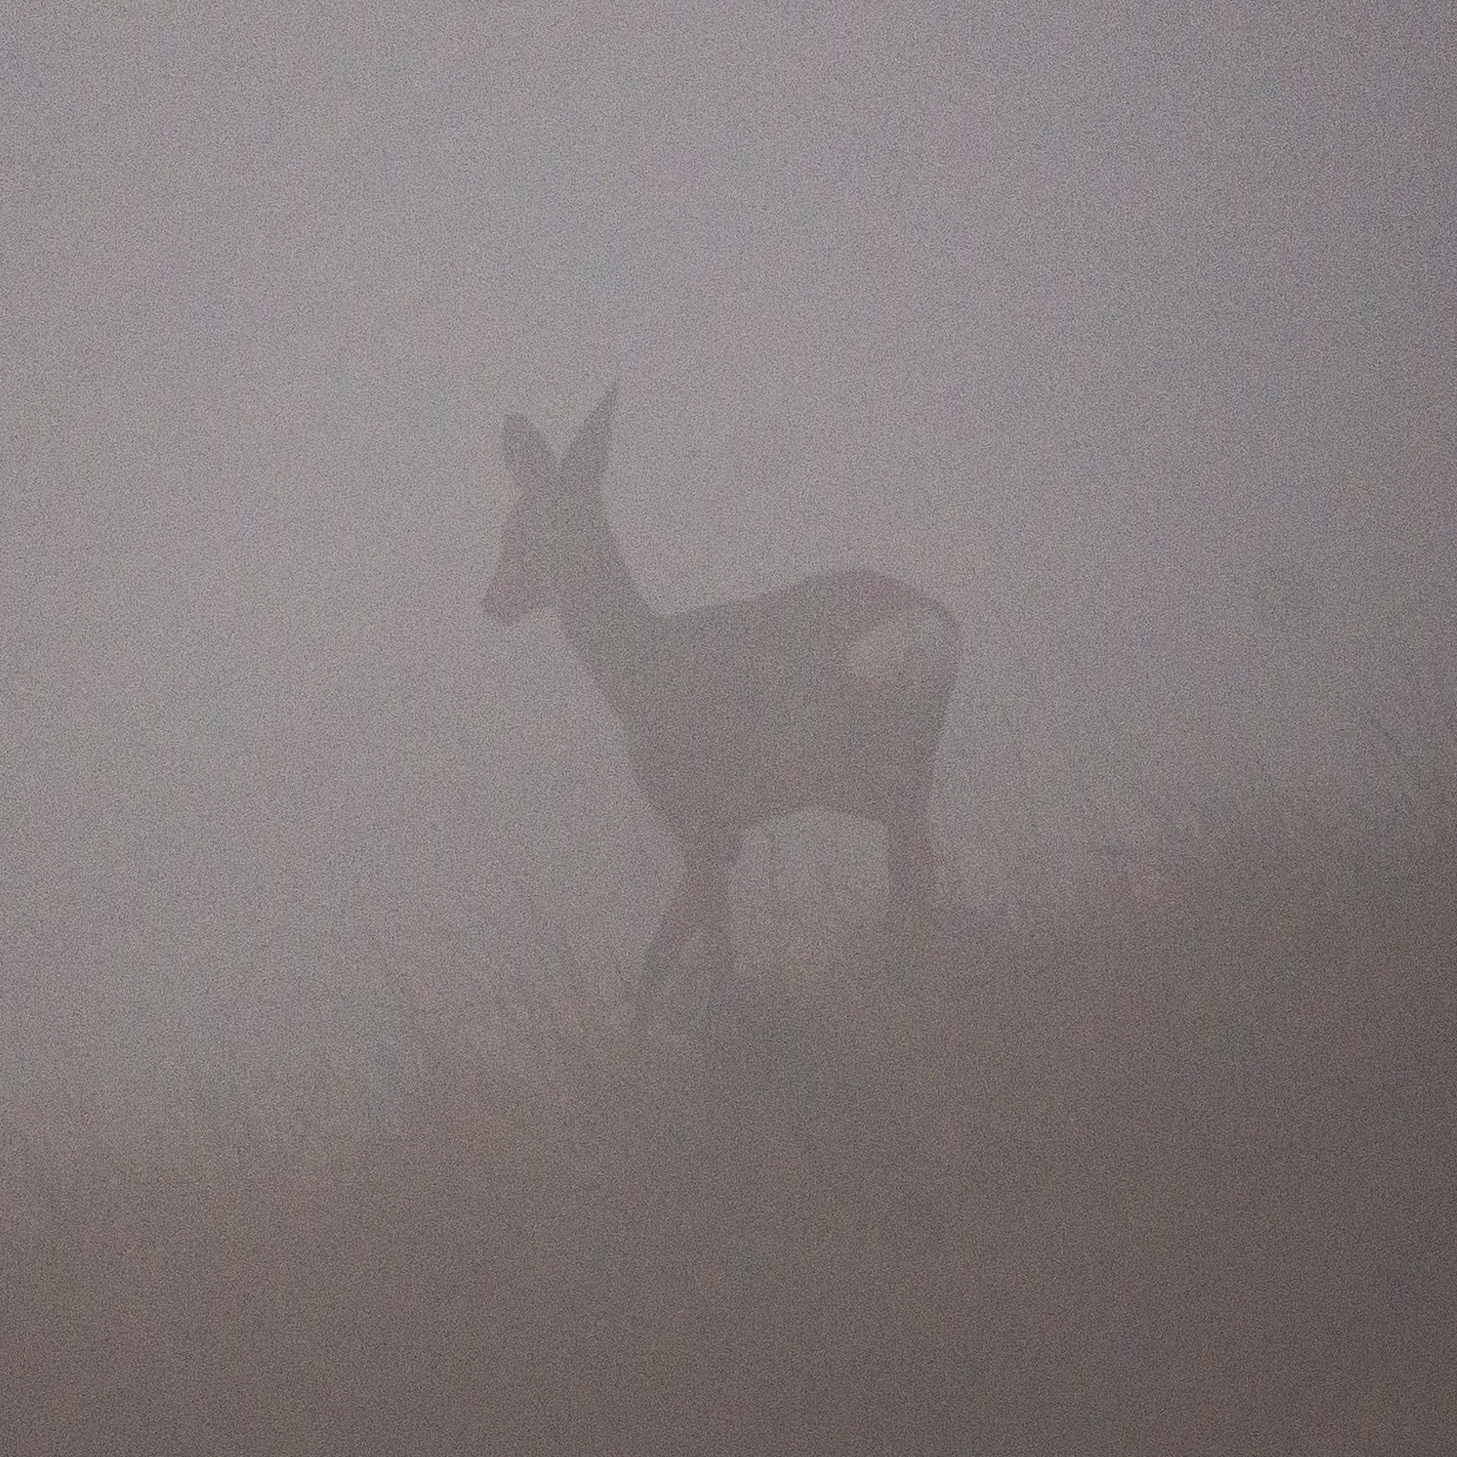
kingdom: Animalia
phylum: Chordata
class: Mammalia
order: Artiodactyla
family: Cervidae
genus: Capreolus
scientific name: Capreolus capreolus
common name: Western roe deer
